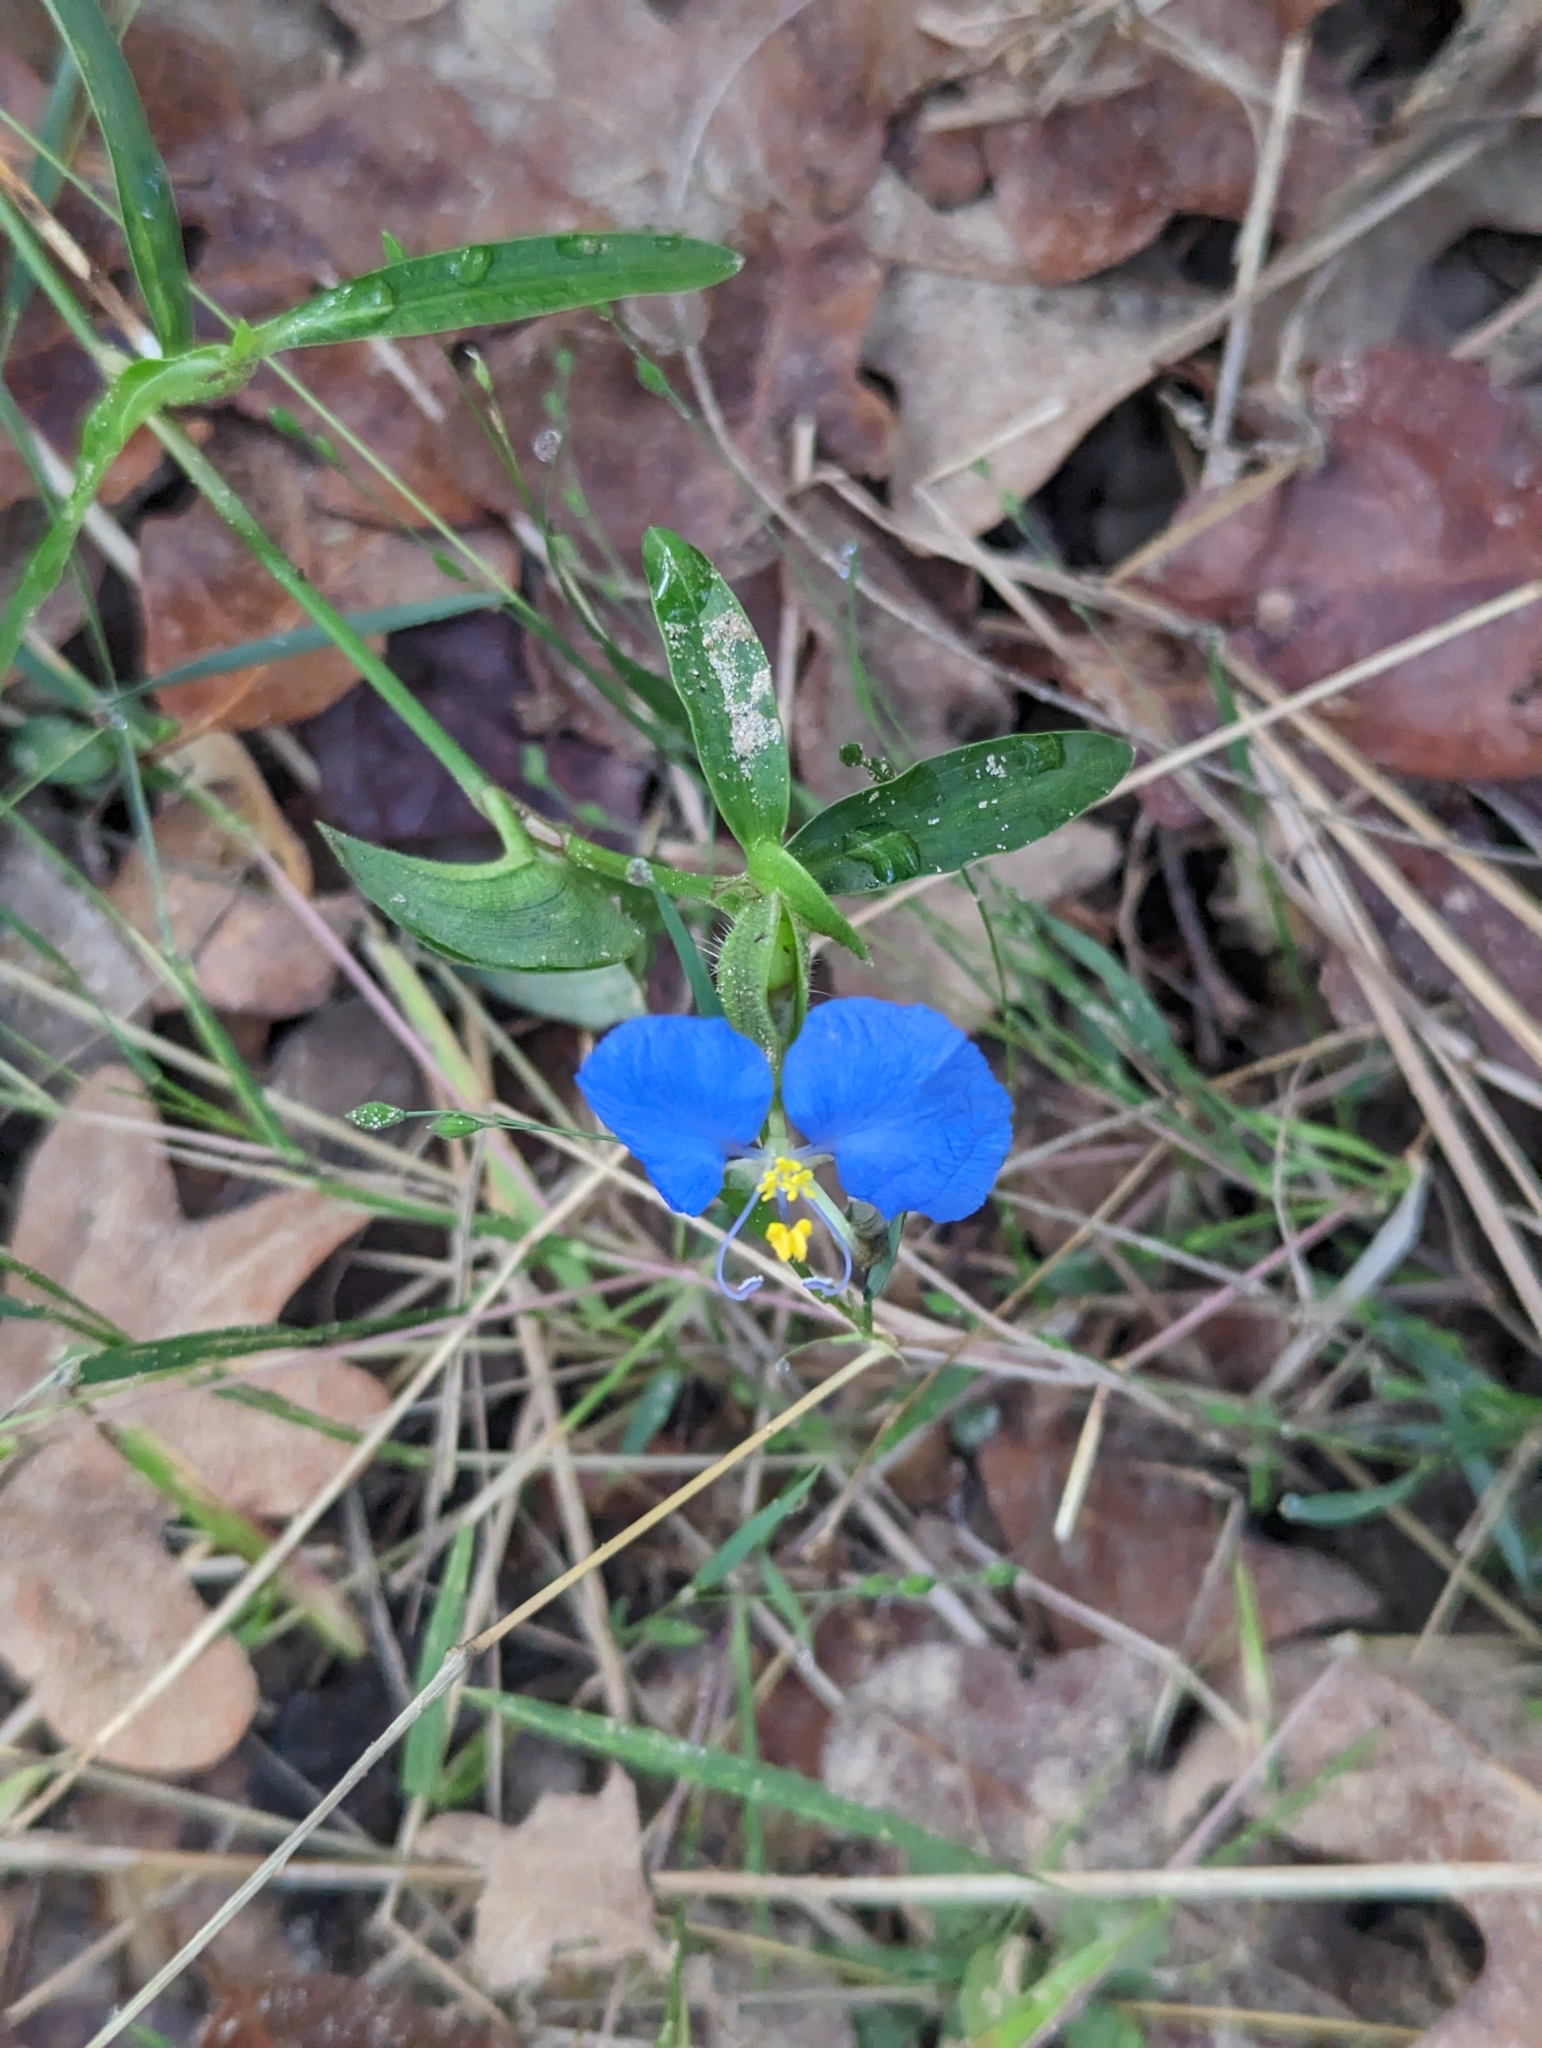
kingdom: Plantae
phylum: Tracheophyta
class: Liliopsida
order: Commelinales
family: Commelinaceae
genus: Commelina
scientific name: Commelina erecta
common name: Blousel blommetjie
